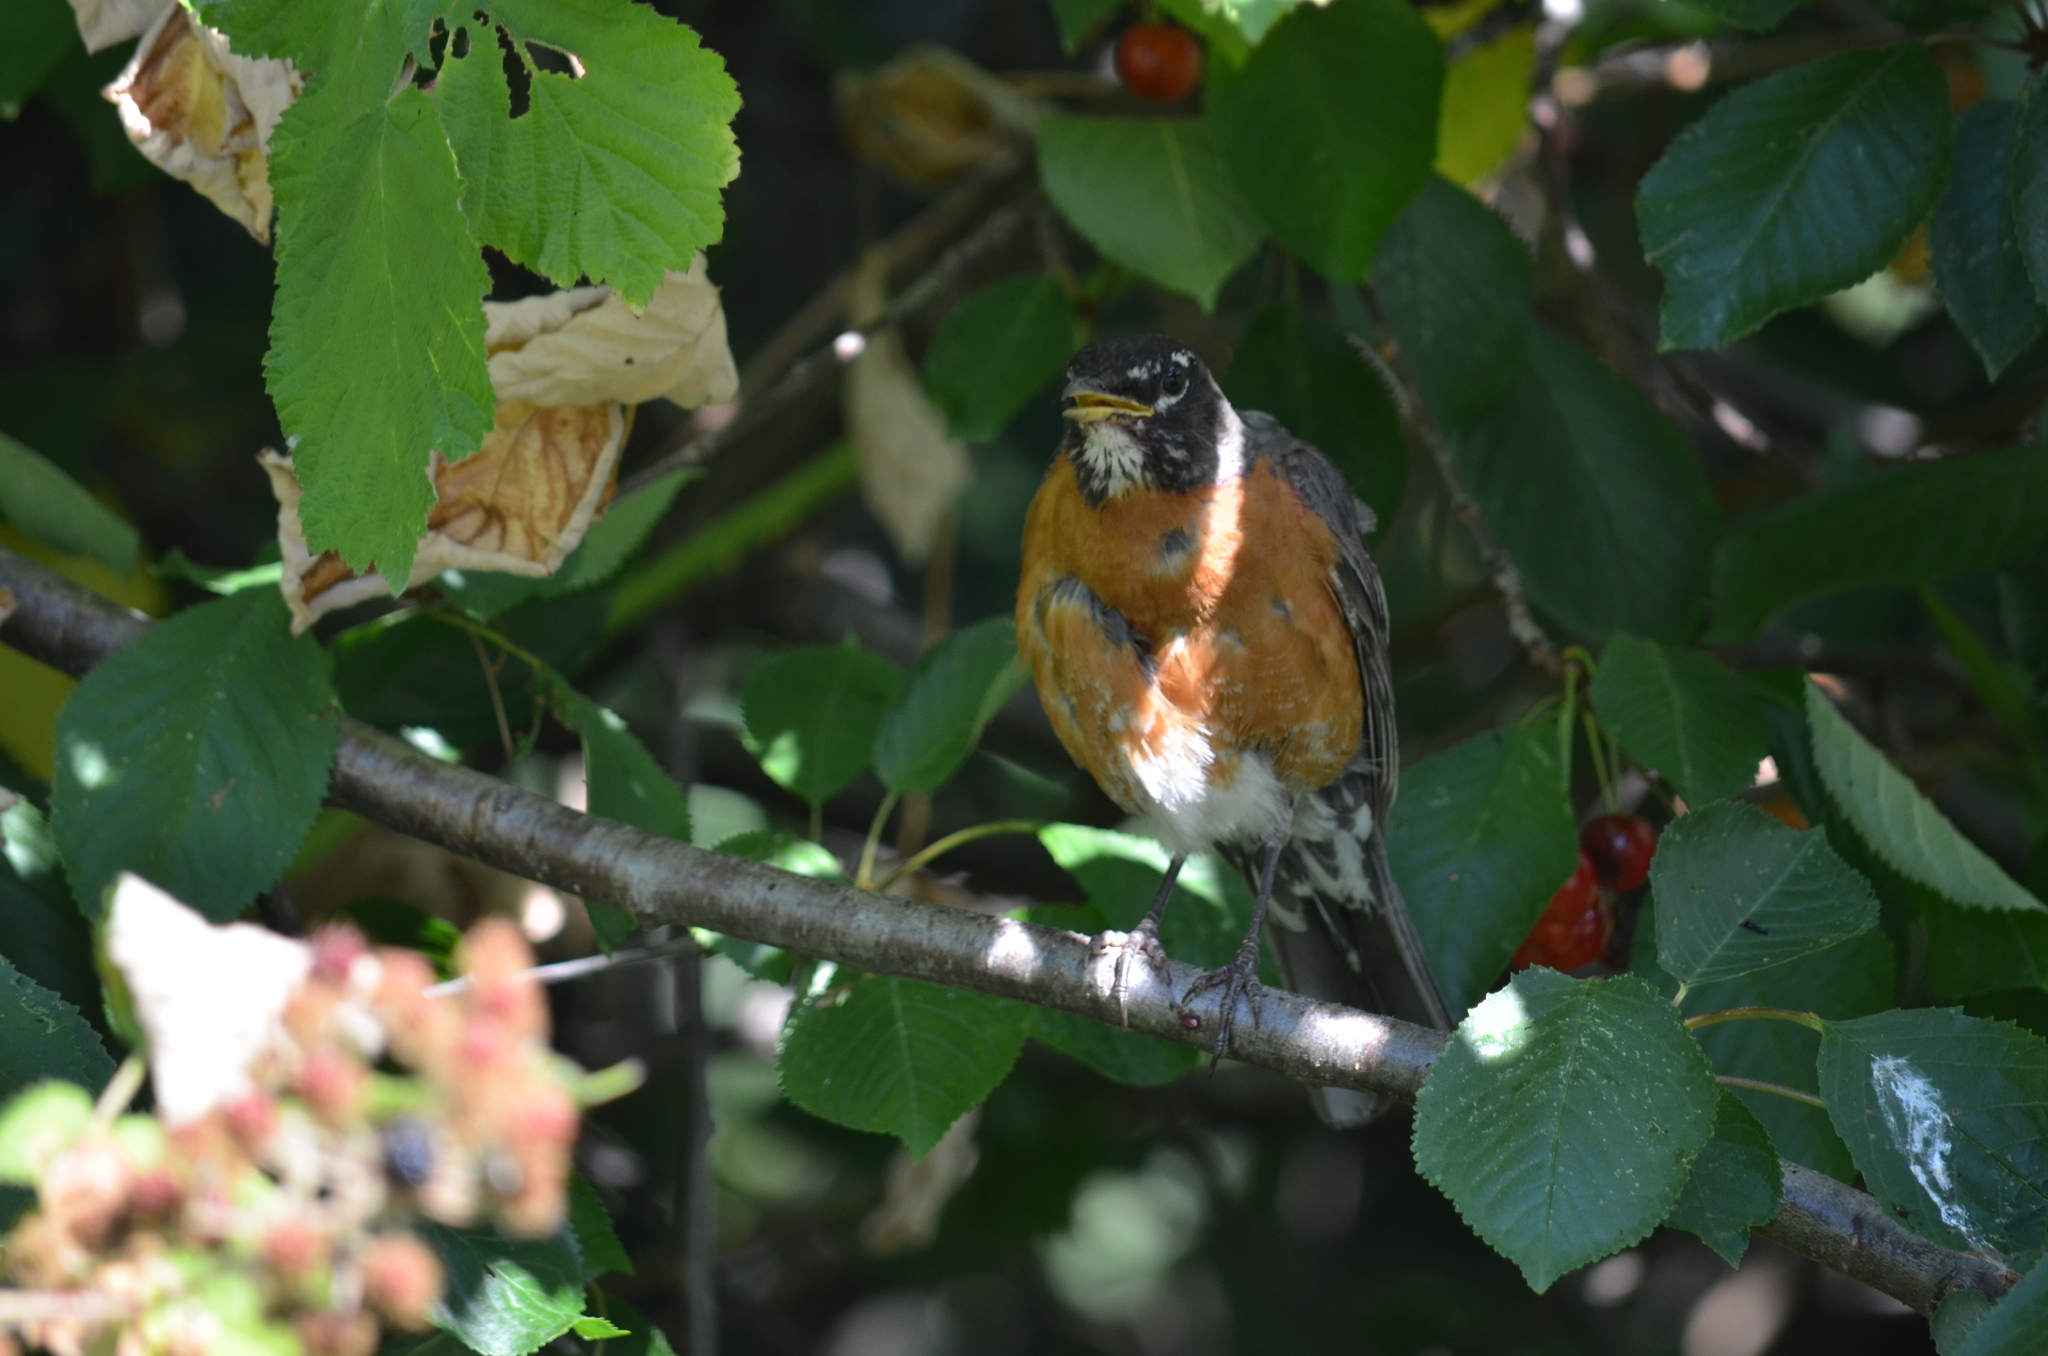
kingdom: Animalia
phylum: Chordata
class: Aves
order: Passeriformes
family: Turdidae
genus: Turdus
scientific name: Turdus migratorius
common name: American robin
